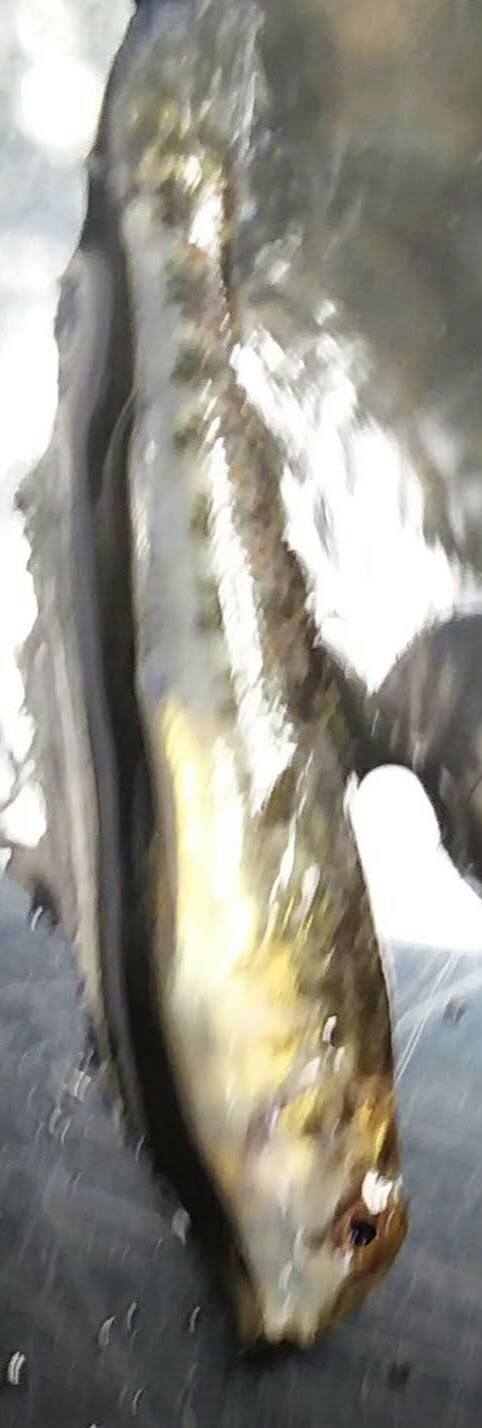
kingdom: Animalia
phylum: Chordata
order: Perciformes
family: Percidae
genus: Etheostoma
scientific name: Etheostoma simoterum
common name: Snubnose darter
